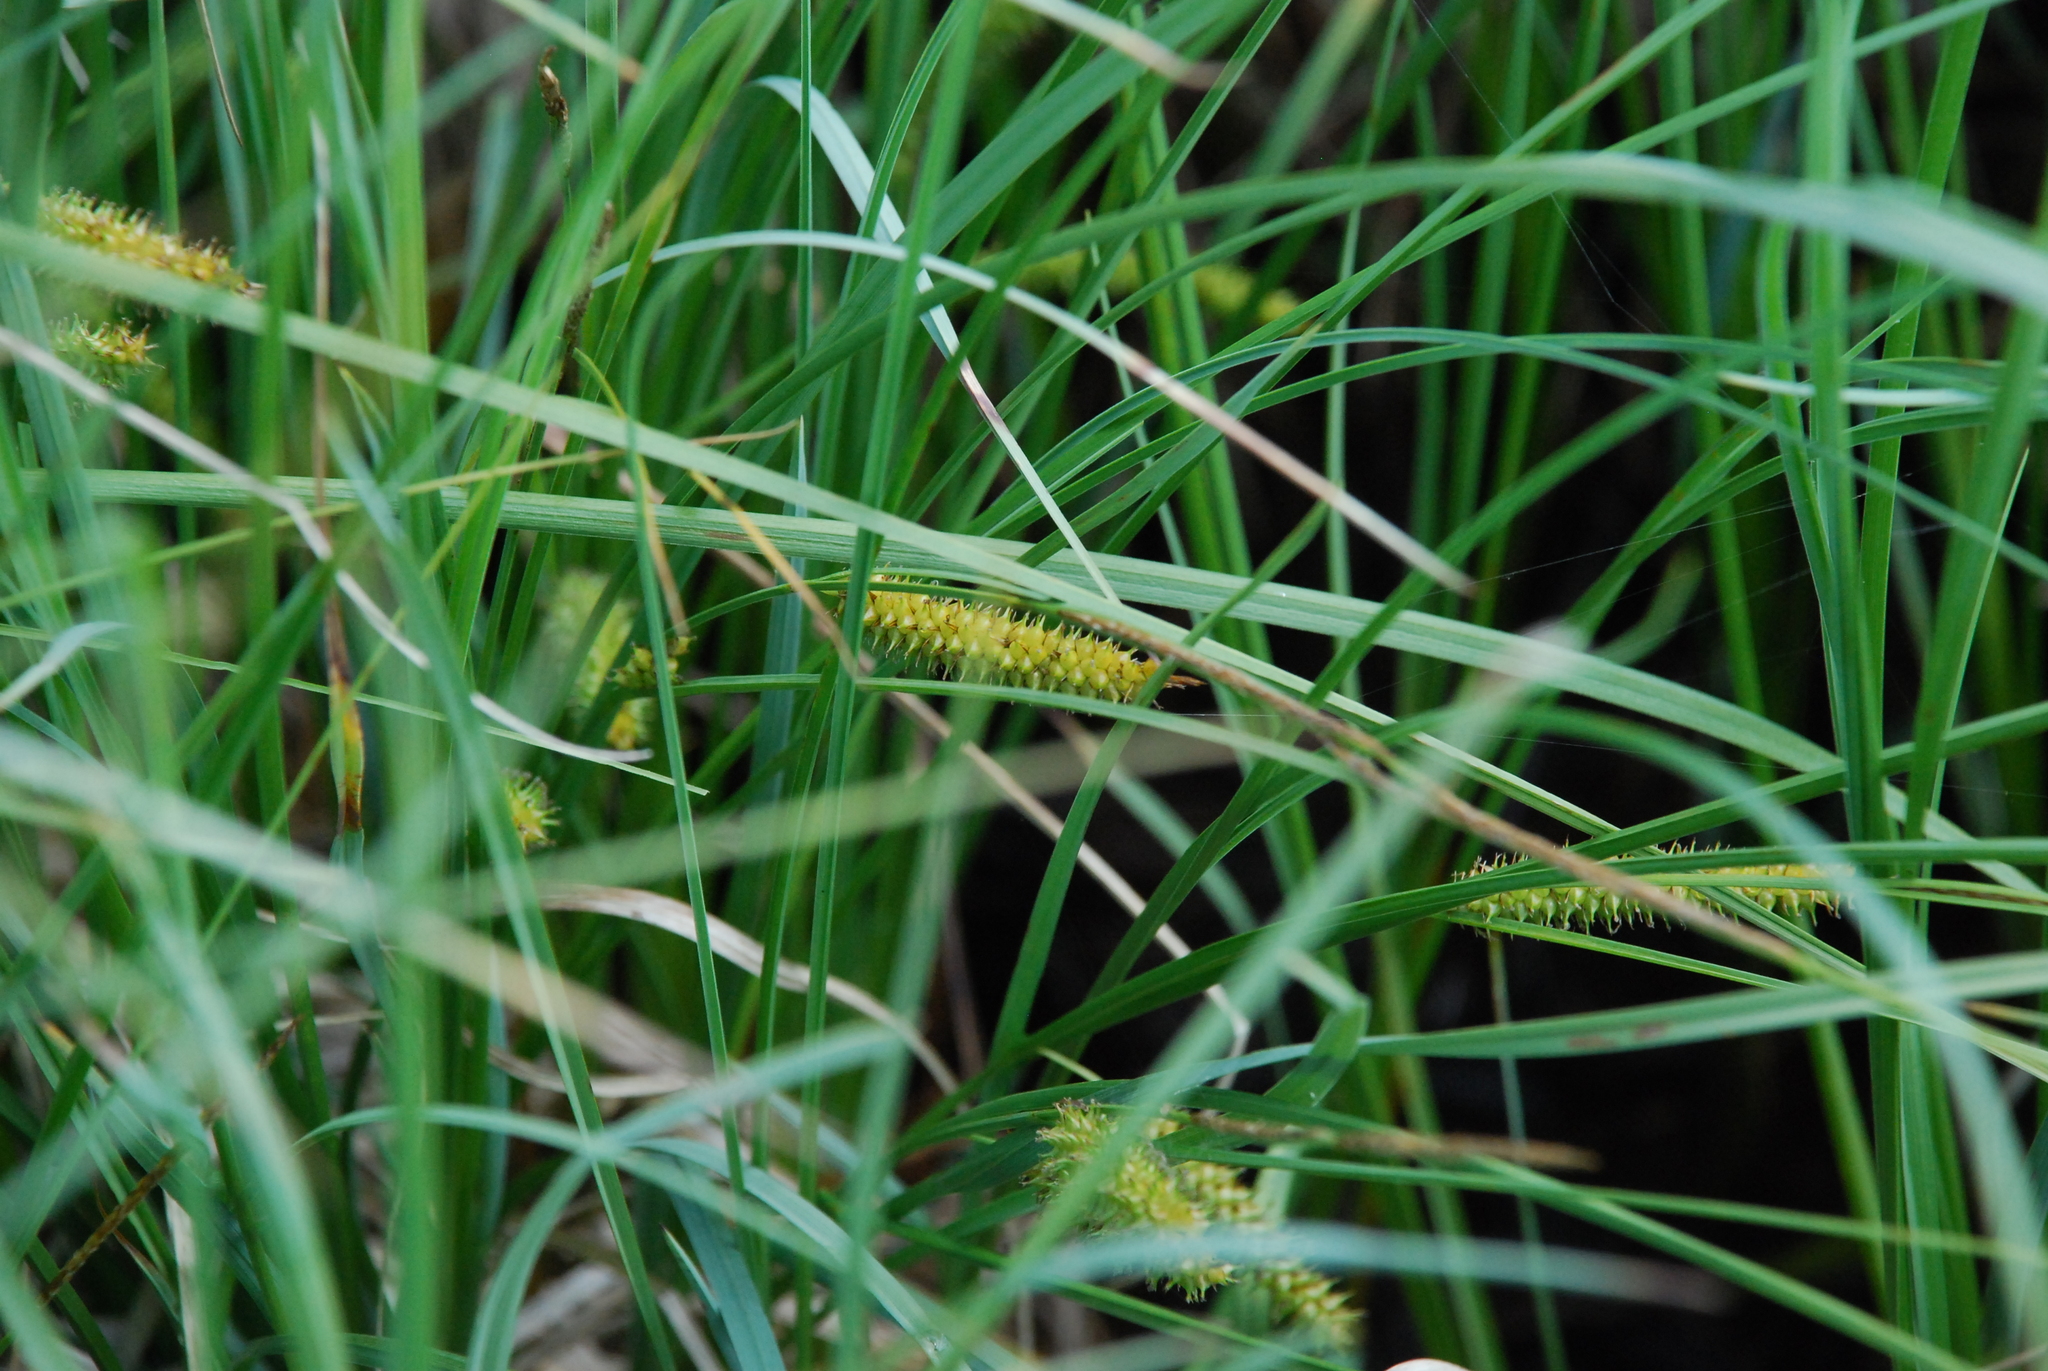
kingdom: Plantae
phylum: Tracheophyta
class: Liliopsida
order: Poales
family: Cyperaceae
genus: Carex
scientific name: Carex rostrata
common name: Bottle sedge
